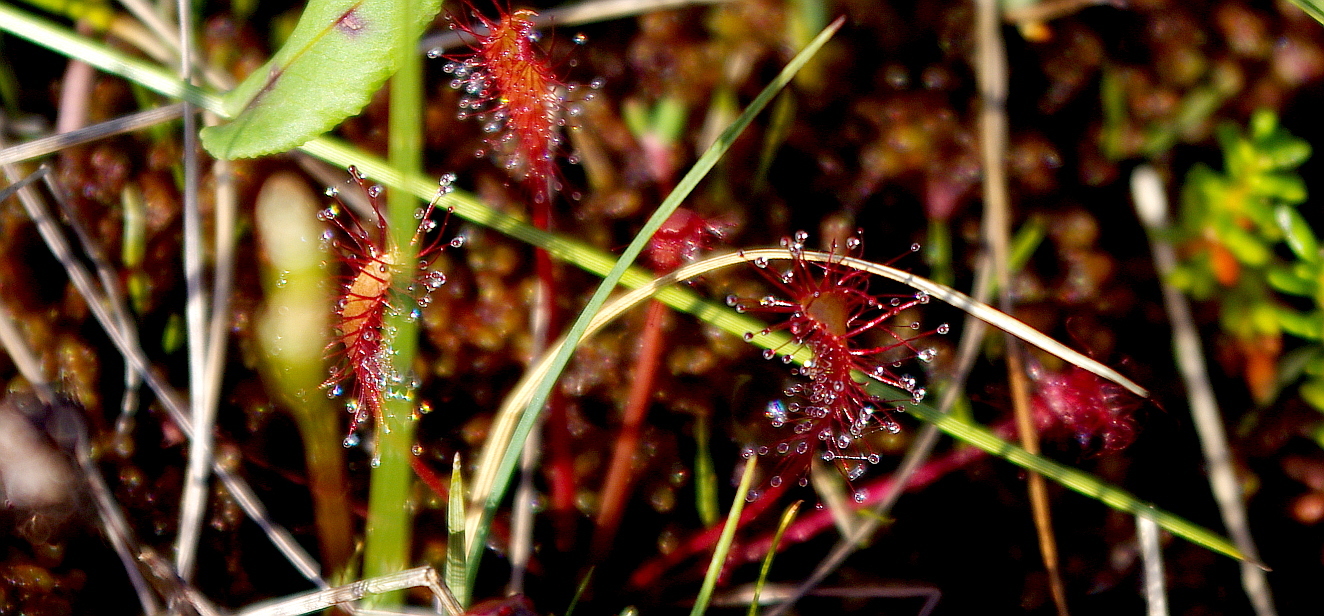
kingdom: Plantae
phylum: Tracheophyta
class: Magnoliopsida
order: Caryophyllales
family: Droseraceae
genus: Drosera
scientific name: Drosera anglica
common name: Great sundew
